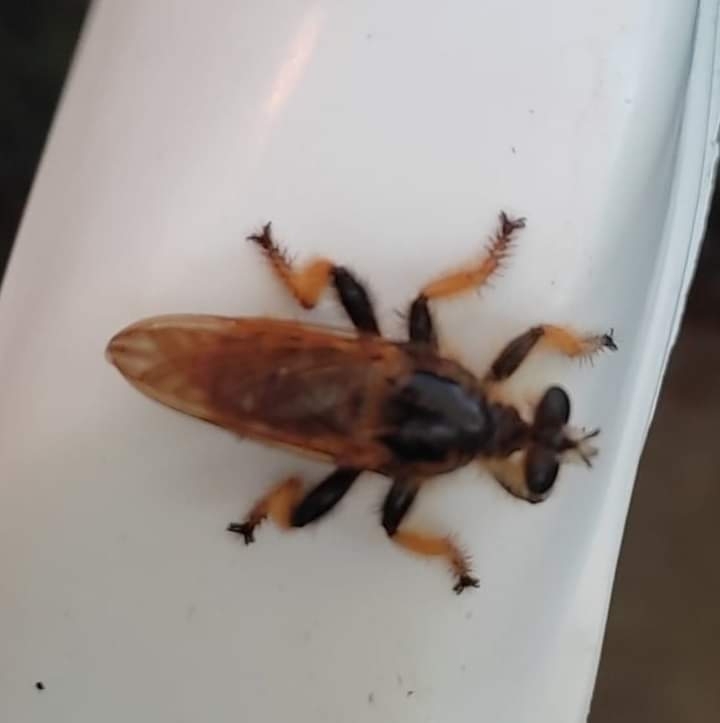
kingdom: Animalia
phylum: Arthropoda
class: Insecta
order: Diptera
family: Asilidae
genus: Pogonosoma
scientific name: Pogonosoma maroccanum
